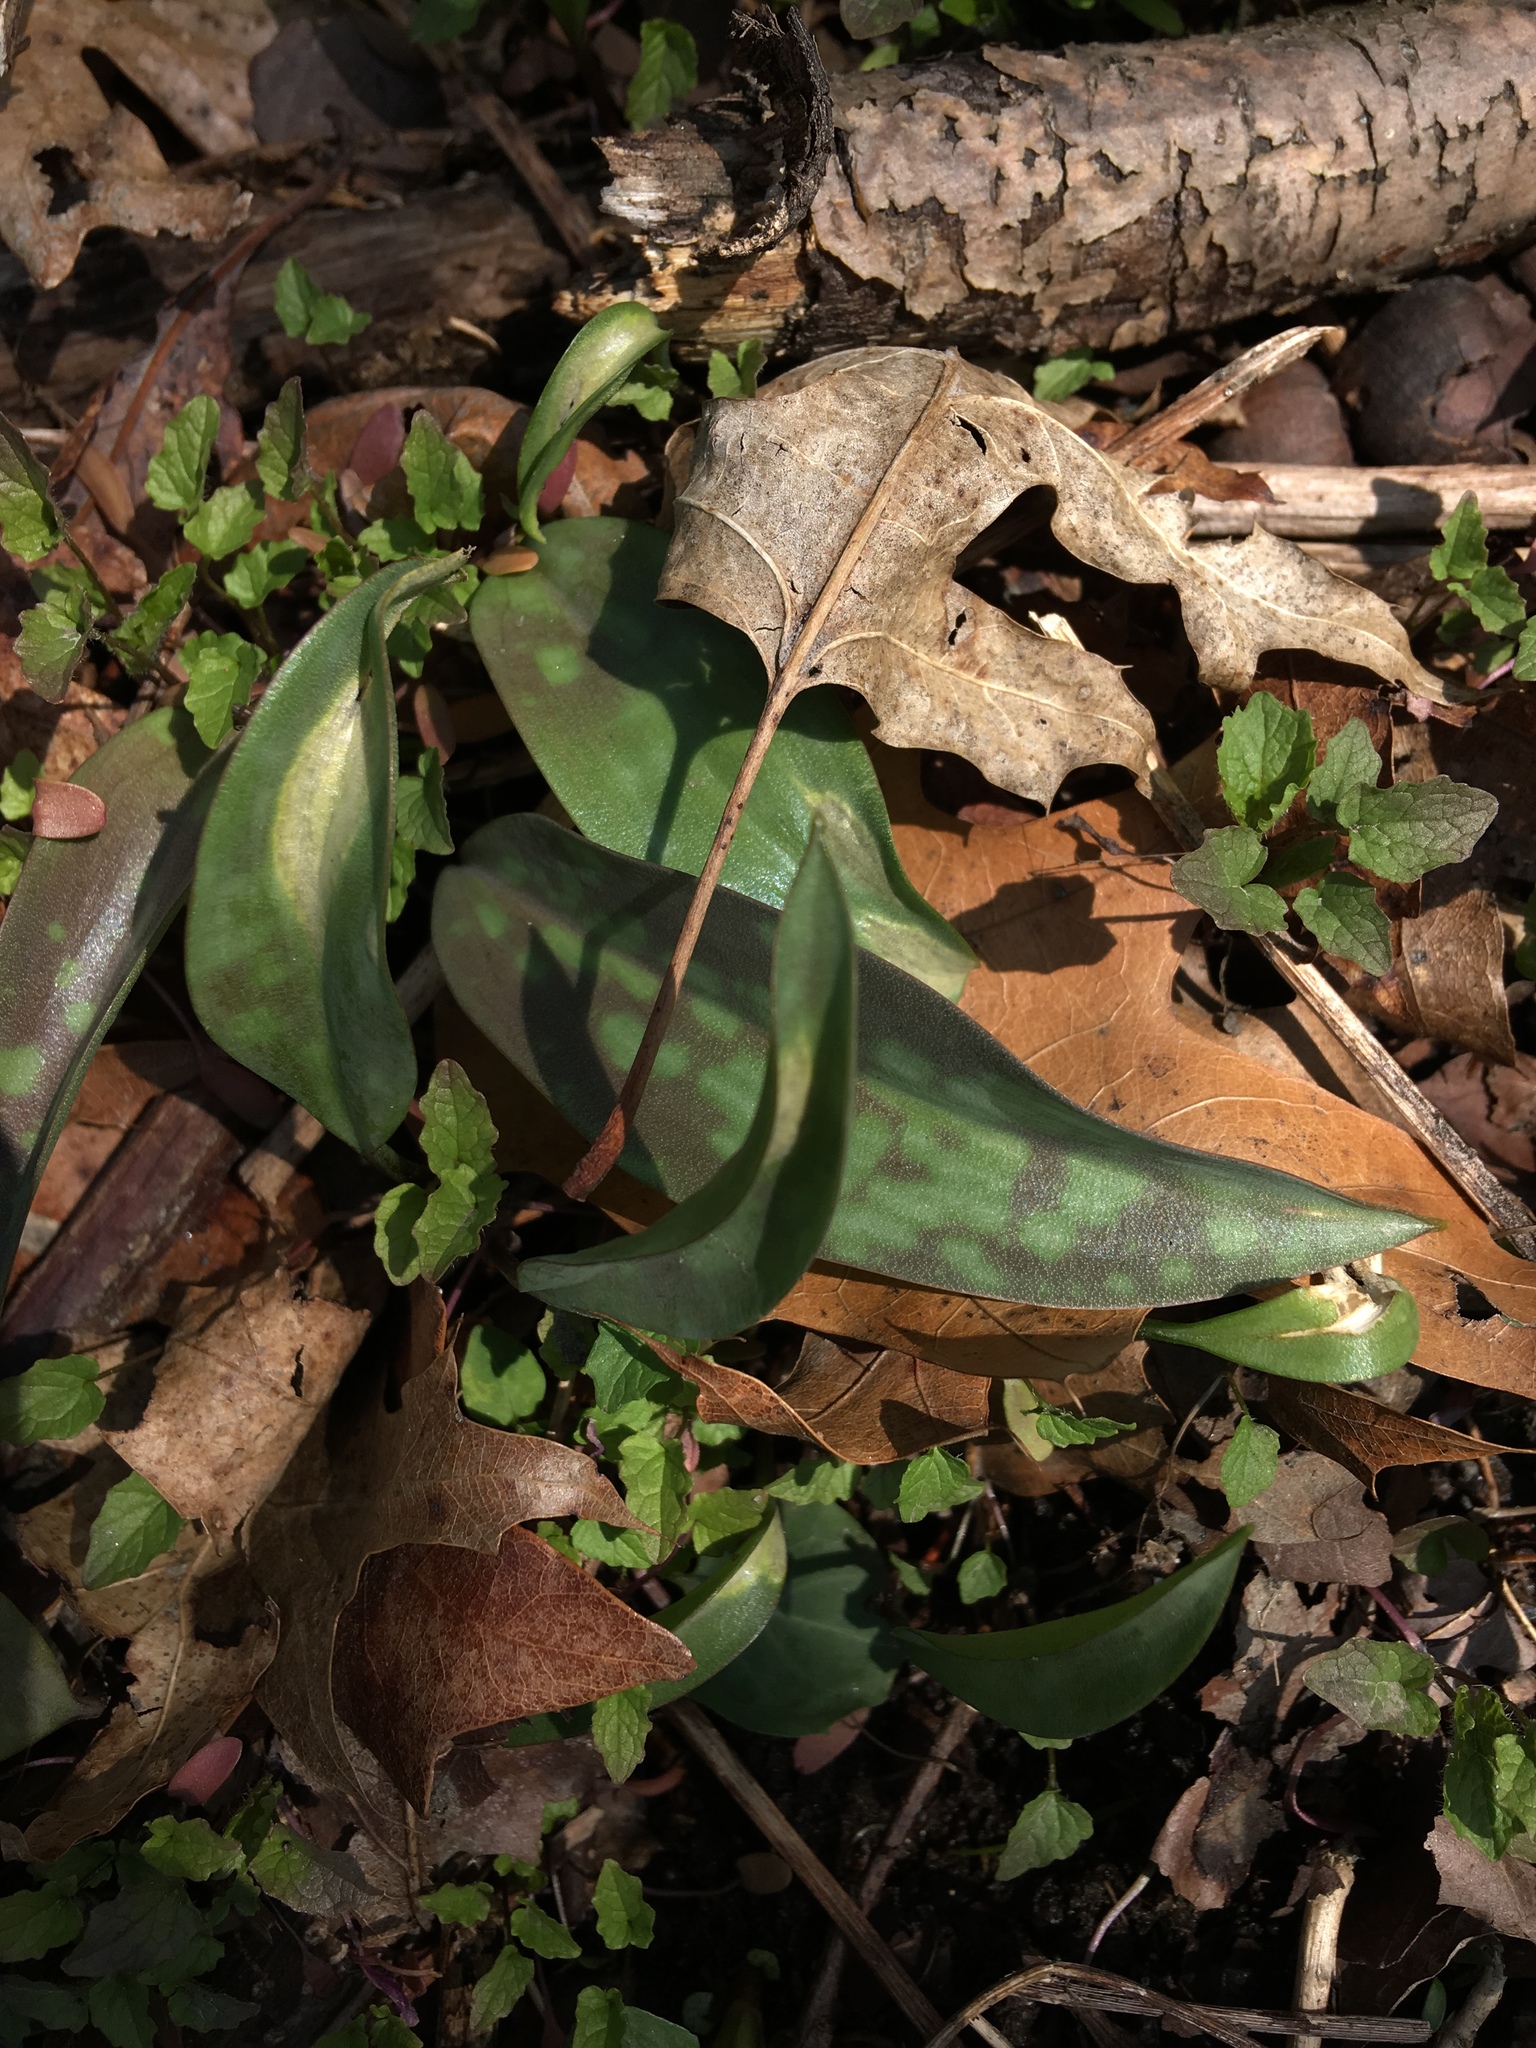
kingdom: Plantae
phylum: Tracheophyta
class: Liliopsida
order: Liliales
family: Liliaceae
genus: Erythronium
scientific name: Erythronium americanum
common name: Yellow adder's-tongue
